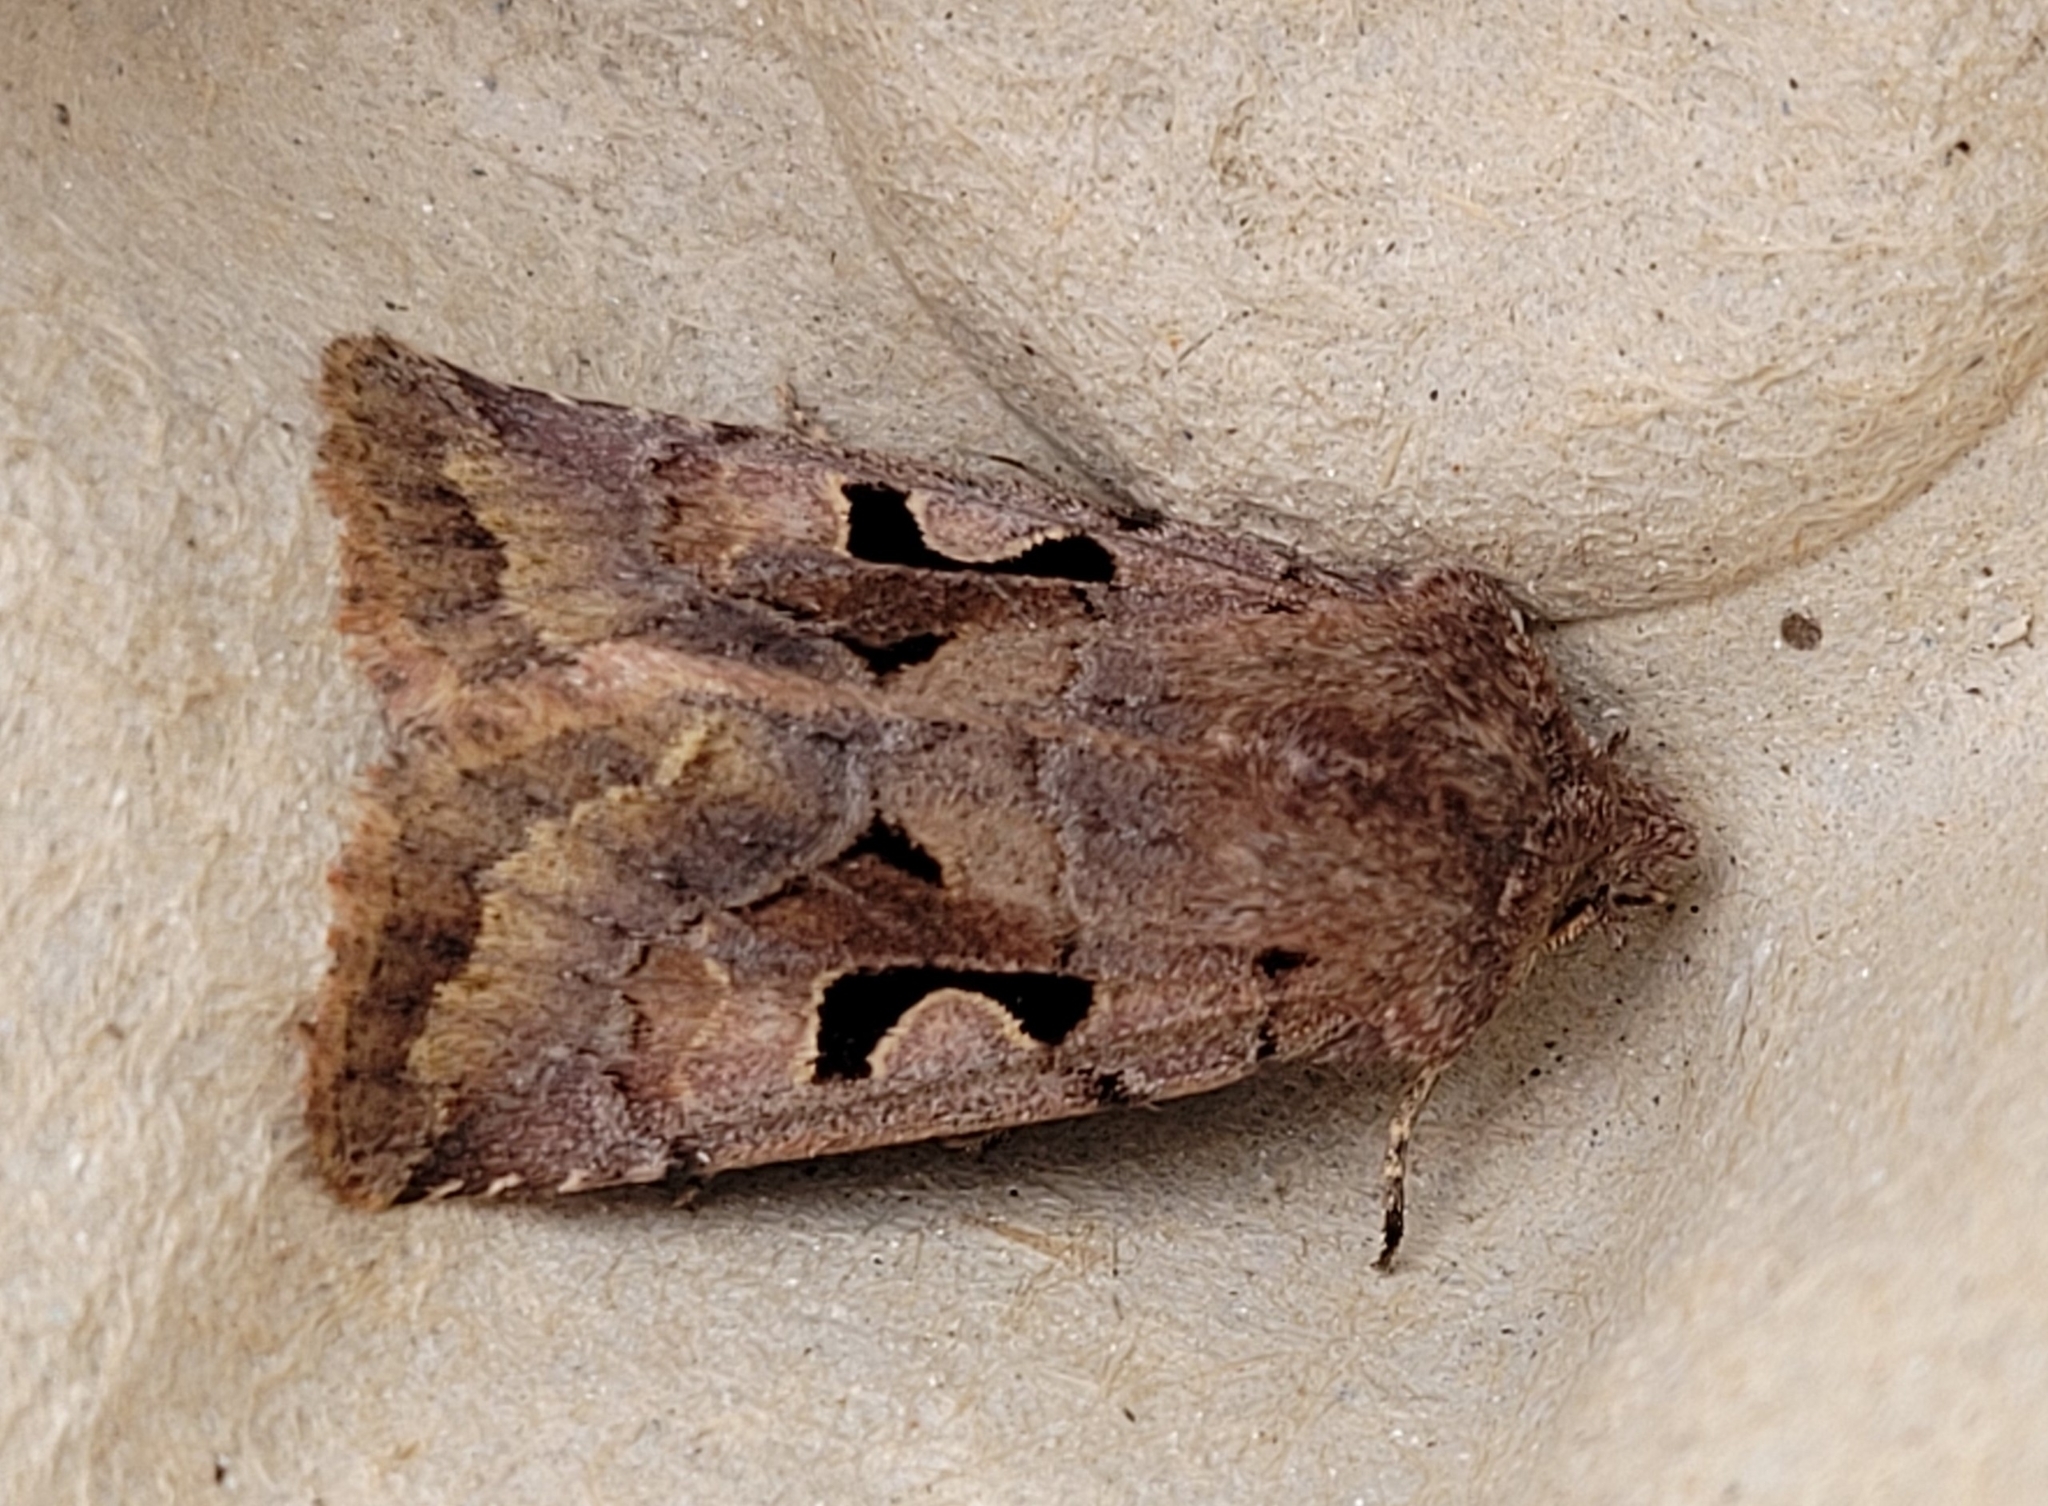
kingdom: Animalia
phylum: Arthropoda
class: Insecta
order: Lepidoptera
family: Noctuidae
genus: Orthosia
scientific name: Orthosia gothica
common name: Hebrew character
